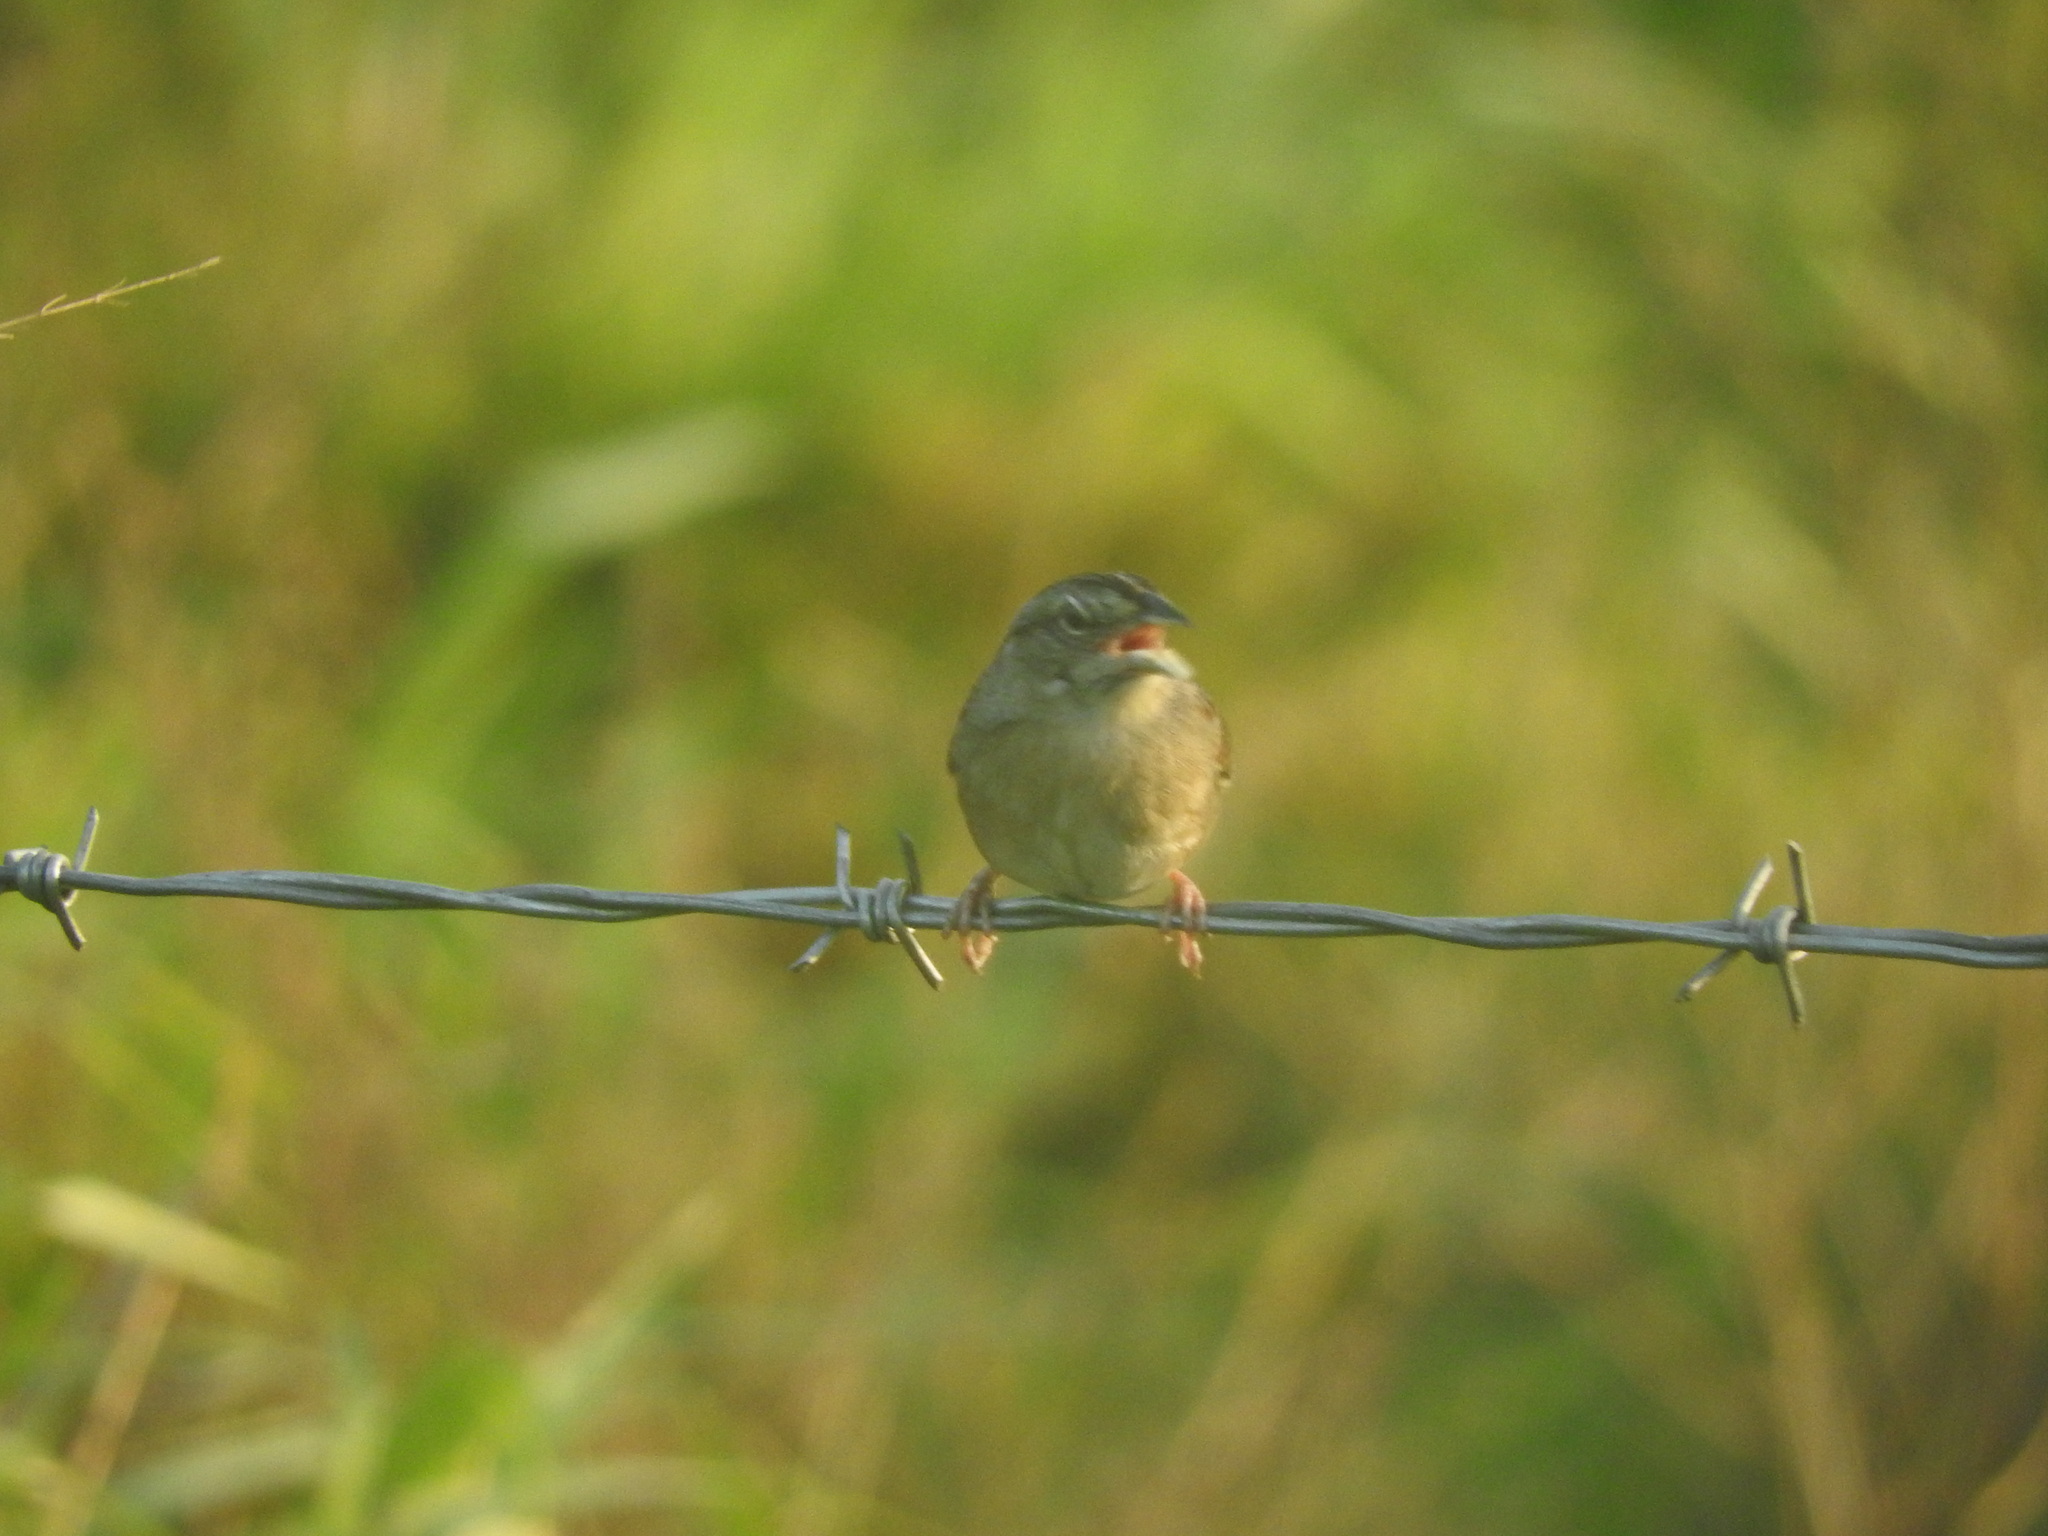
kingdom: Animalia
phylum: Chordata
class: Aves
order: Passeriformes
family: Passerellidae
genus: Peucaea
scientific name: Peucaea botterii
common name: Botteri's sparrow
